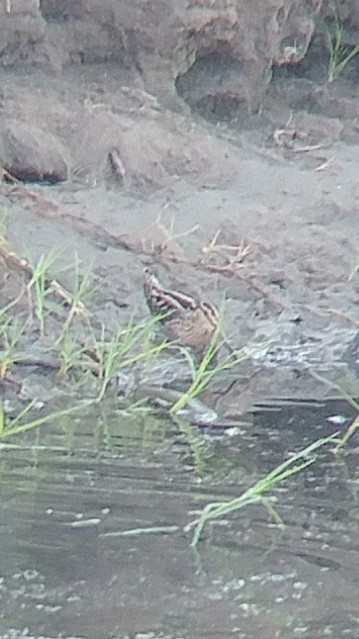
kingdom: Animalia
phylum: Chordata
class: Aves
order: Charadriiformes
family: Scolopacidae
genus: Gallinago
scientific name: Gallinago delicata
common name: Wilson's snipe
